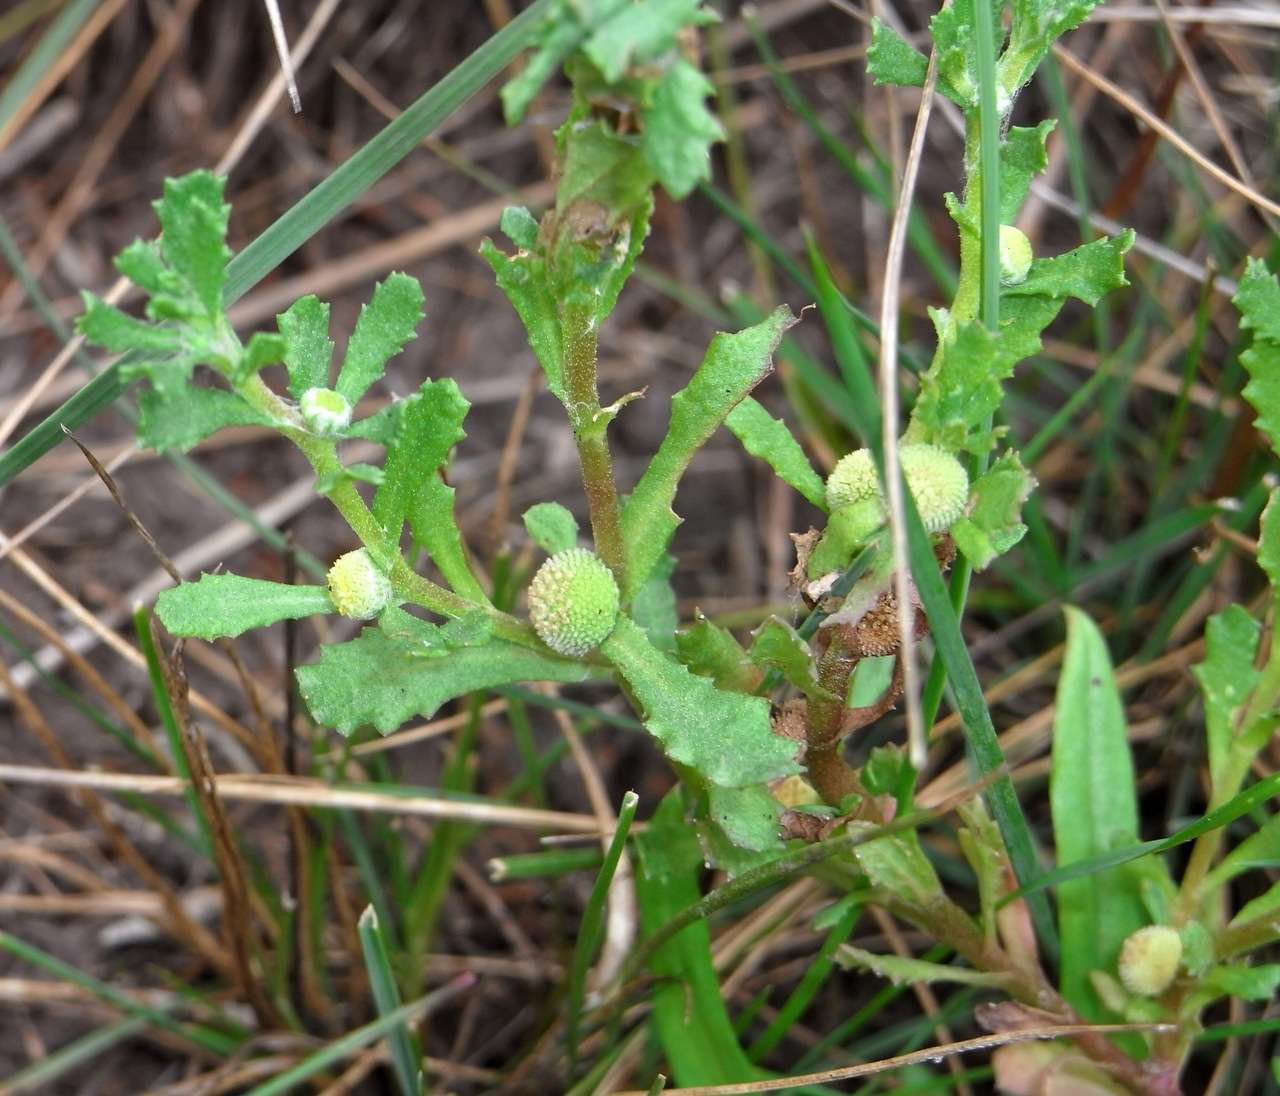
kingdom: Plantae
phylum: Tracheophyta
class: Magnoliopsida
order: Asterales
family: Asteraceae
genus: Centipeda
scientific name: Centipeda cunninghamii
